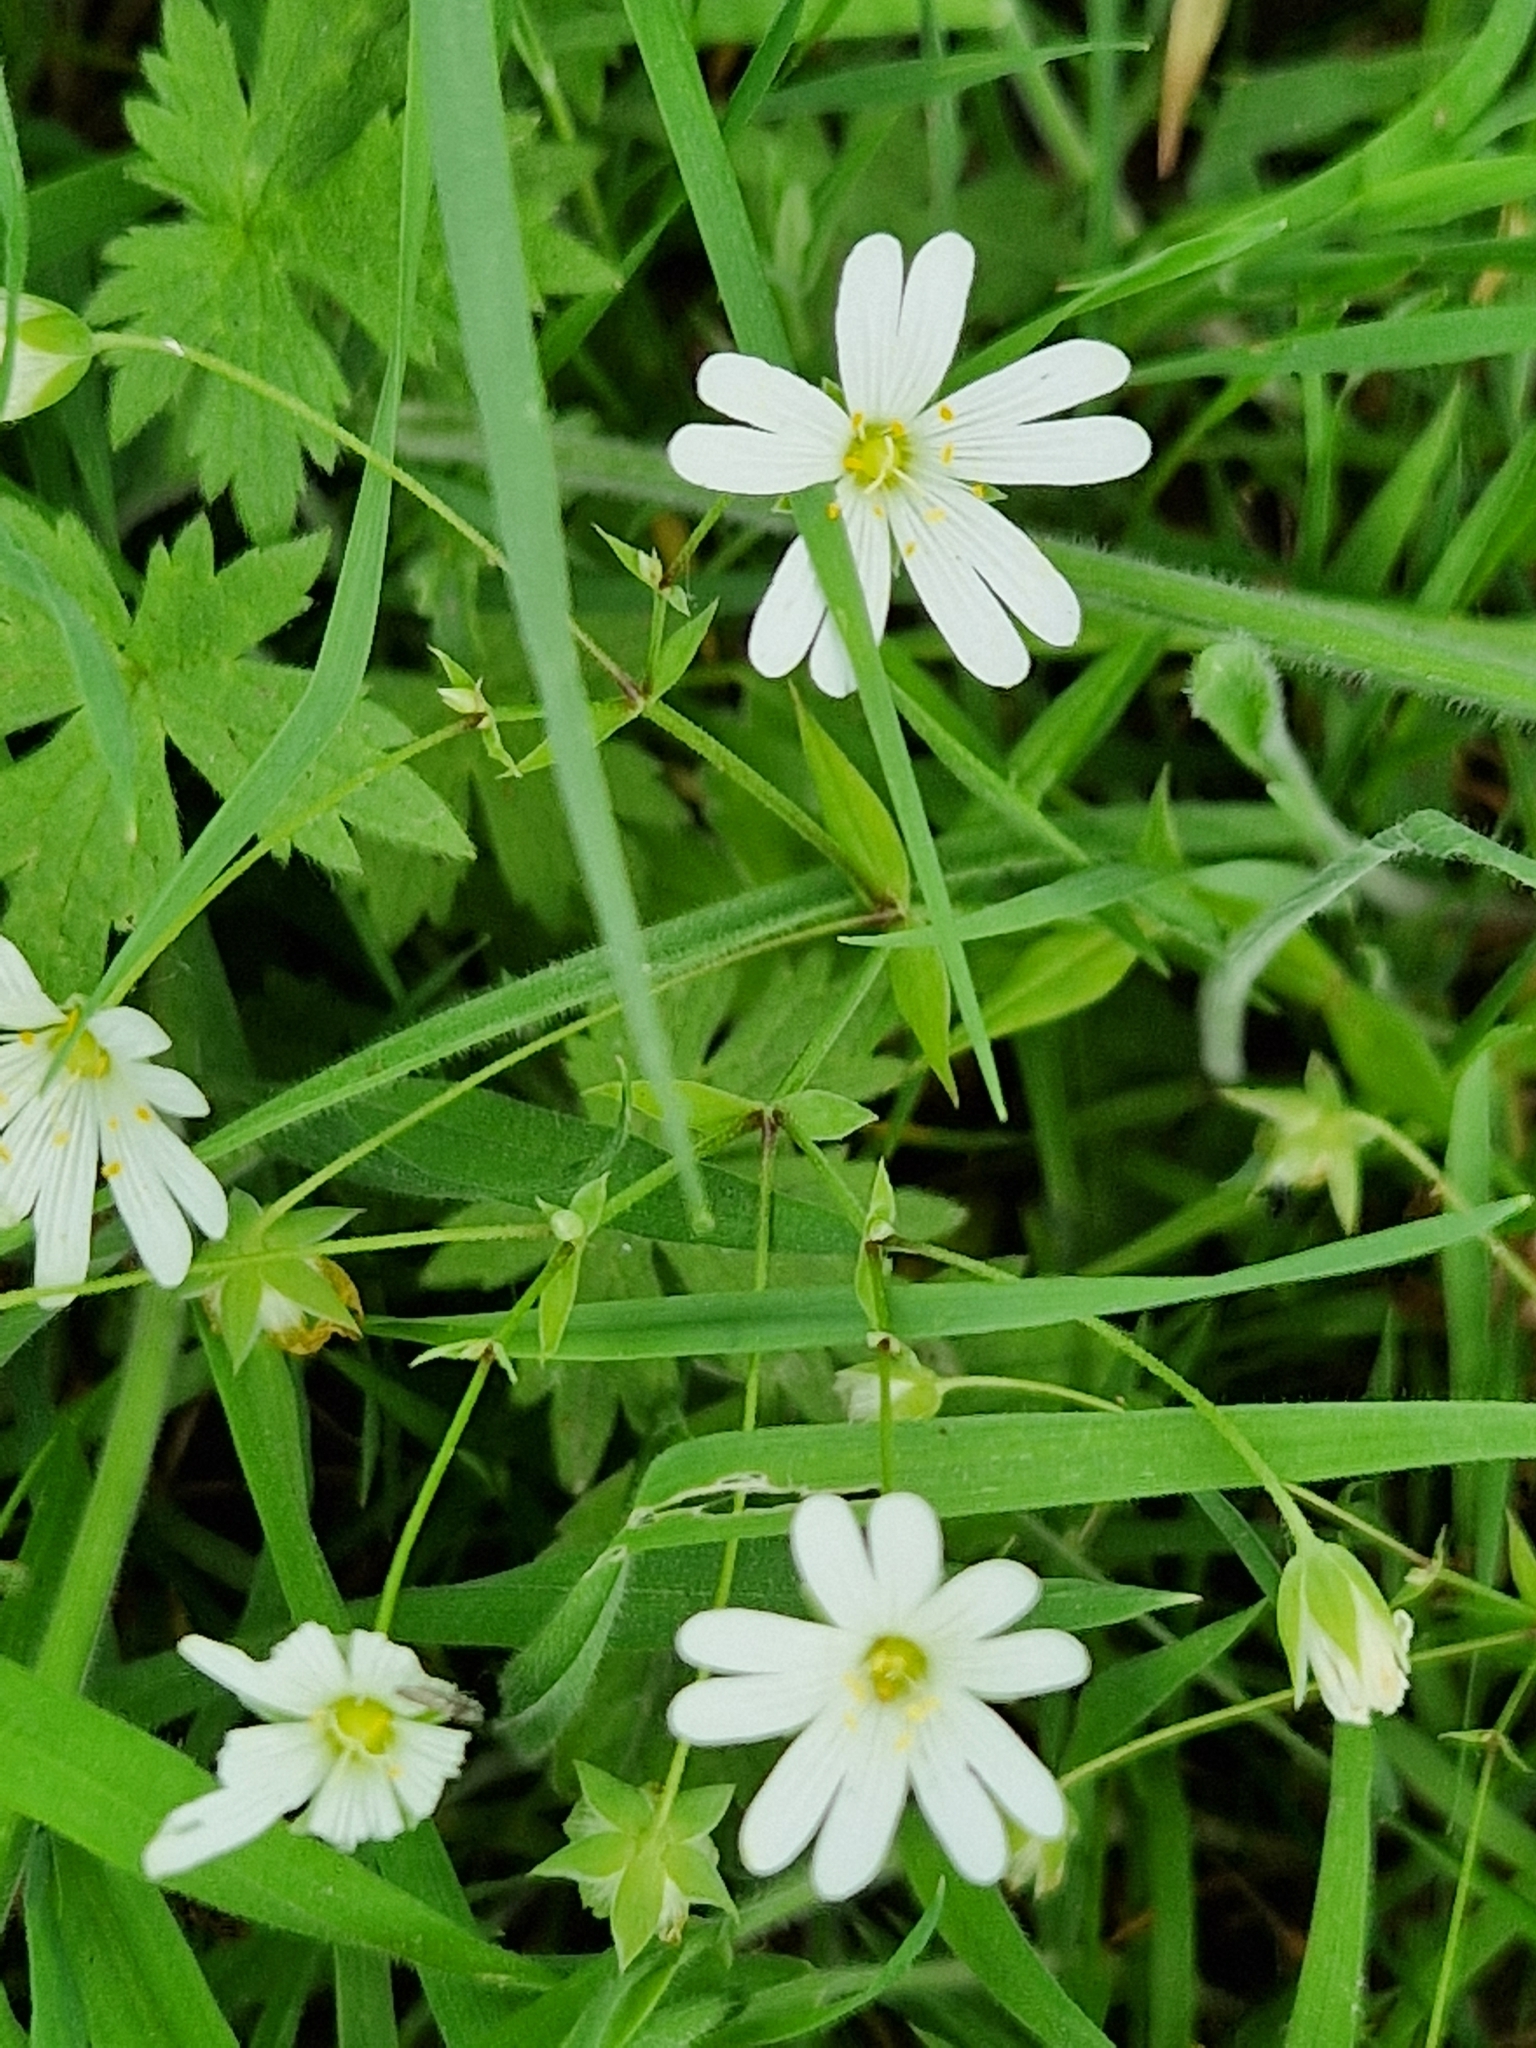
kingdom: Plantae
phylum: Tracheophyta
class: Magnoliopsida
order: Caryophyllales
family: Caryophyllaceae
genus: Rabelera
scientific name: Rabelera holostea
